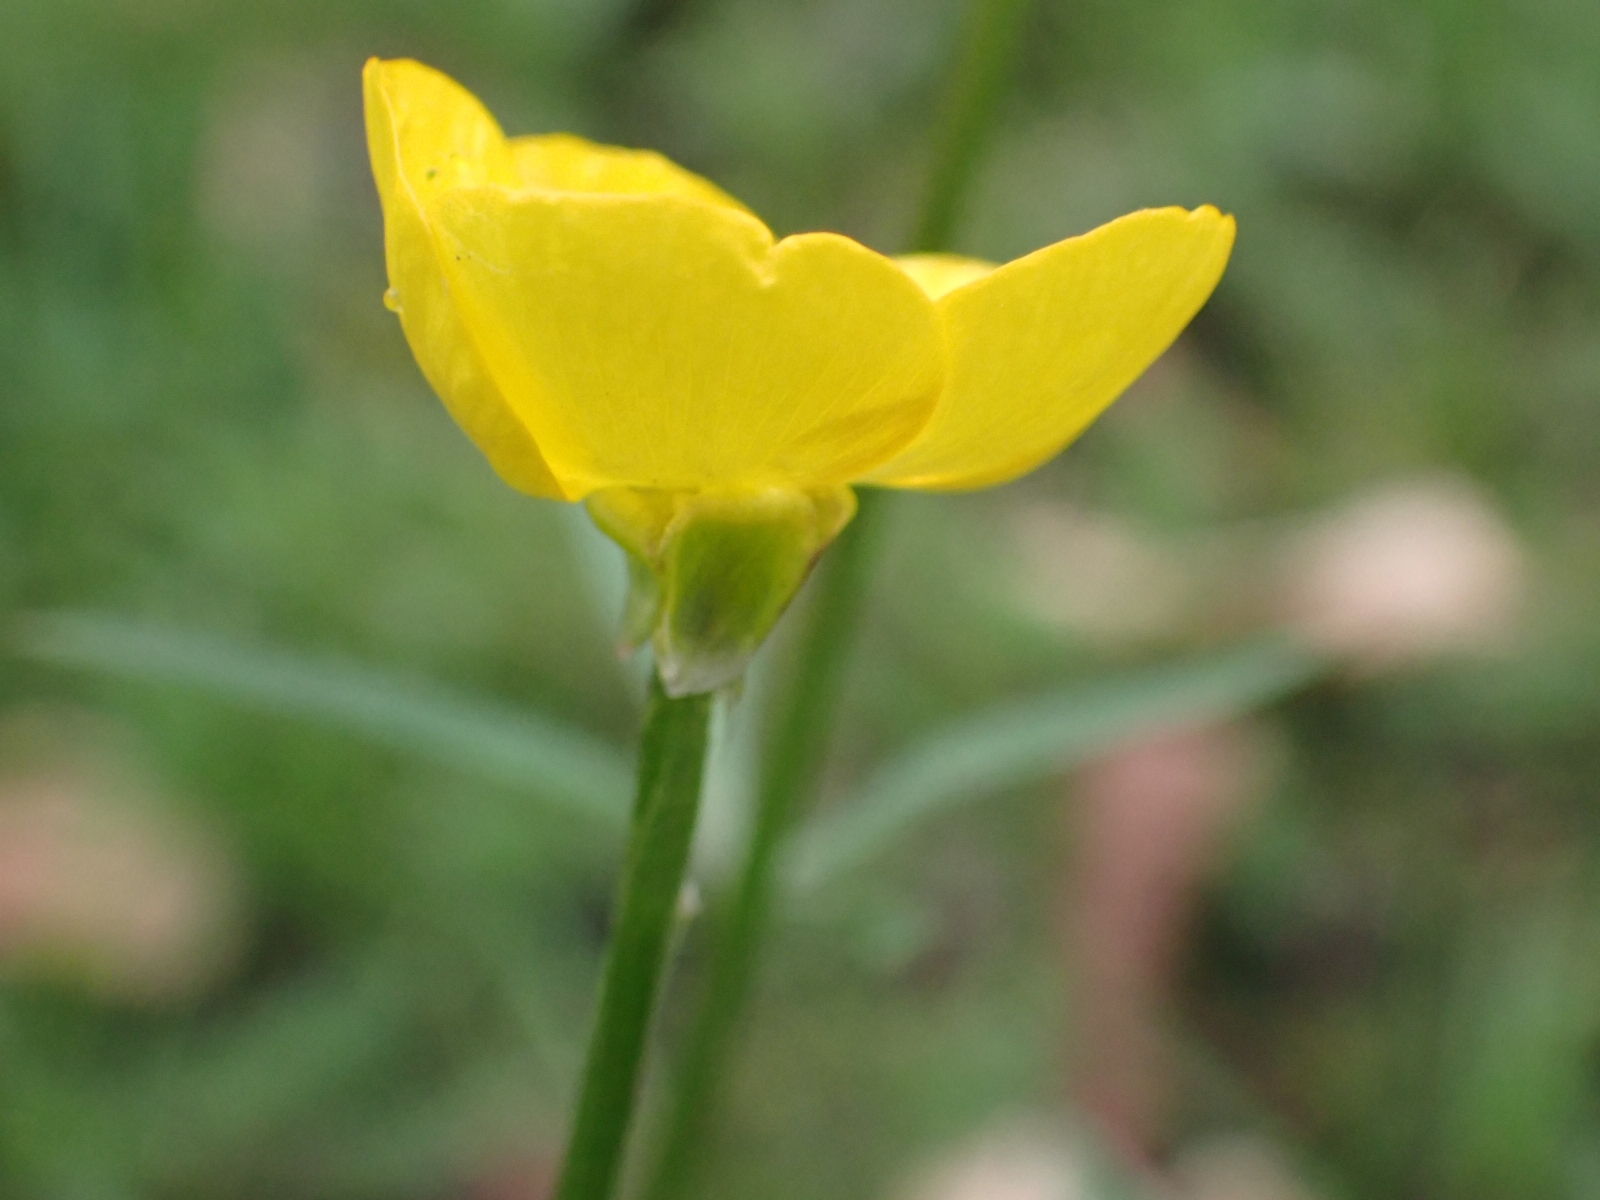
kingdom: Plantae
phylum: Tracheophyta
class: Magnoliopsida
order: Ranunculales
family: Ranunculaceae
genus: Ranunculus
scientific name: Ranunculus bulbosus
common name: Bulbous buttercup
